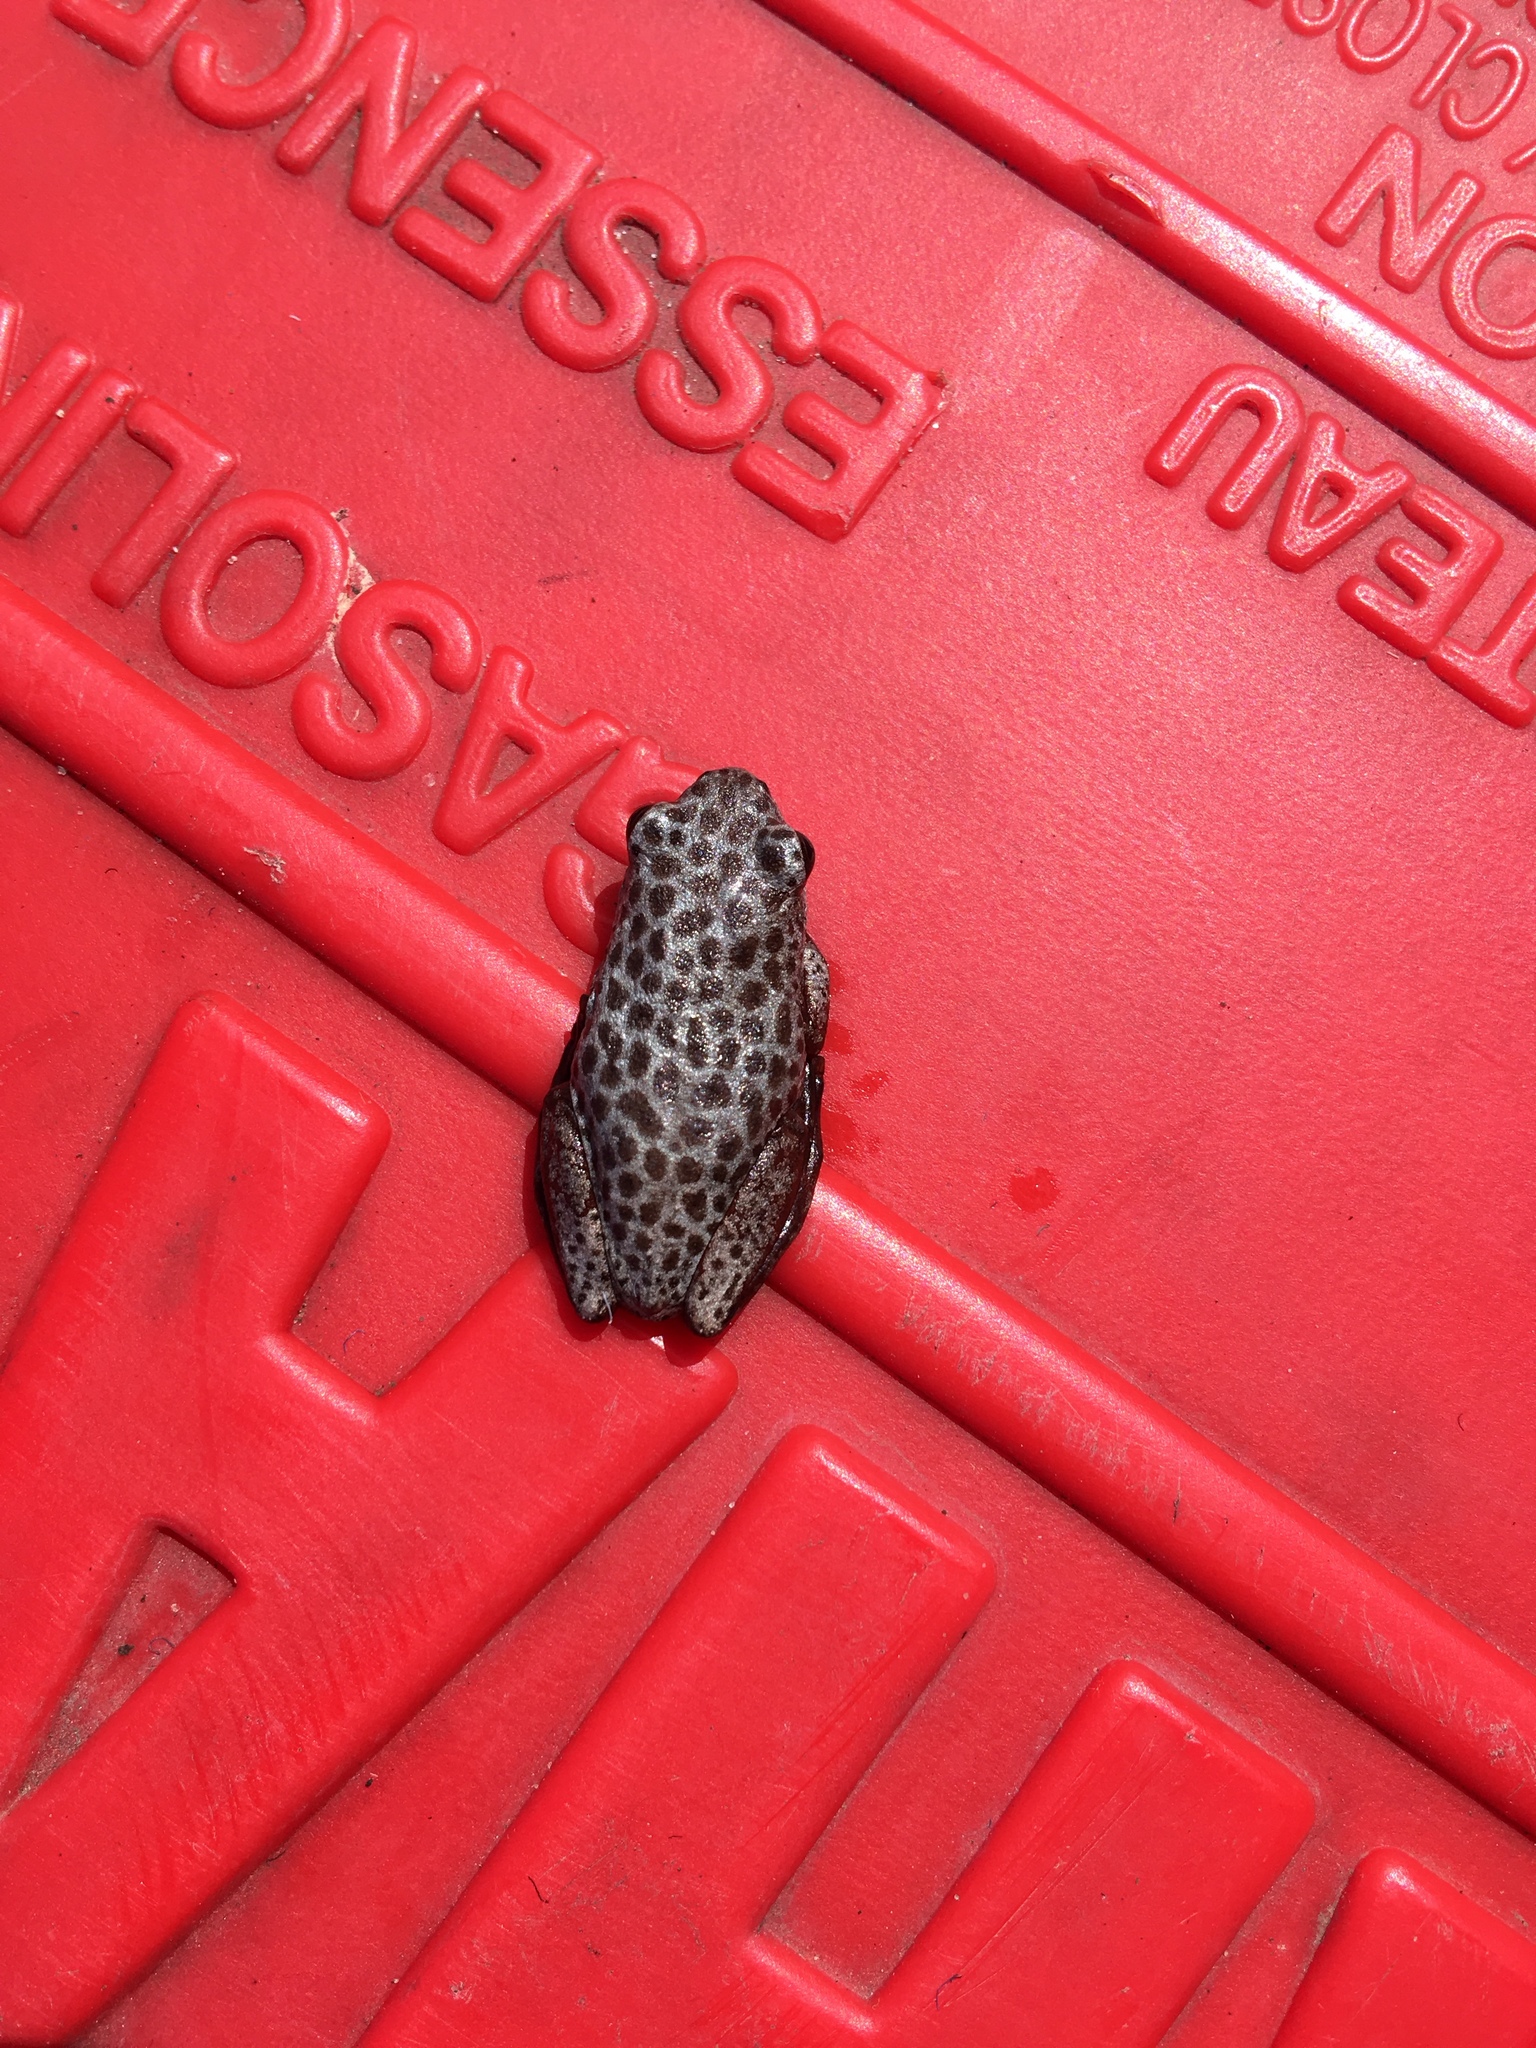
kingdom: Animalia
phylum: Chordata
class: Amphibia
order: Anura
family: Hyperoliidae
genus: Hyperolius
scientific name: Hyperolius parallelus
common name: Angolan reed frog
